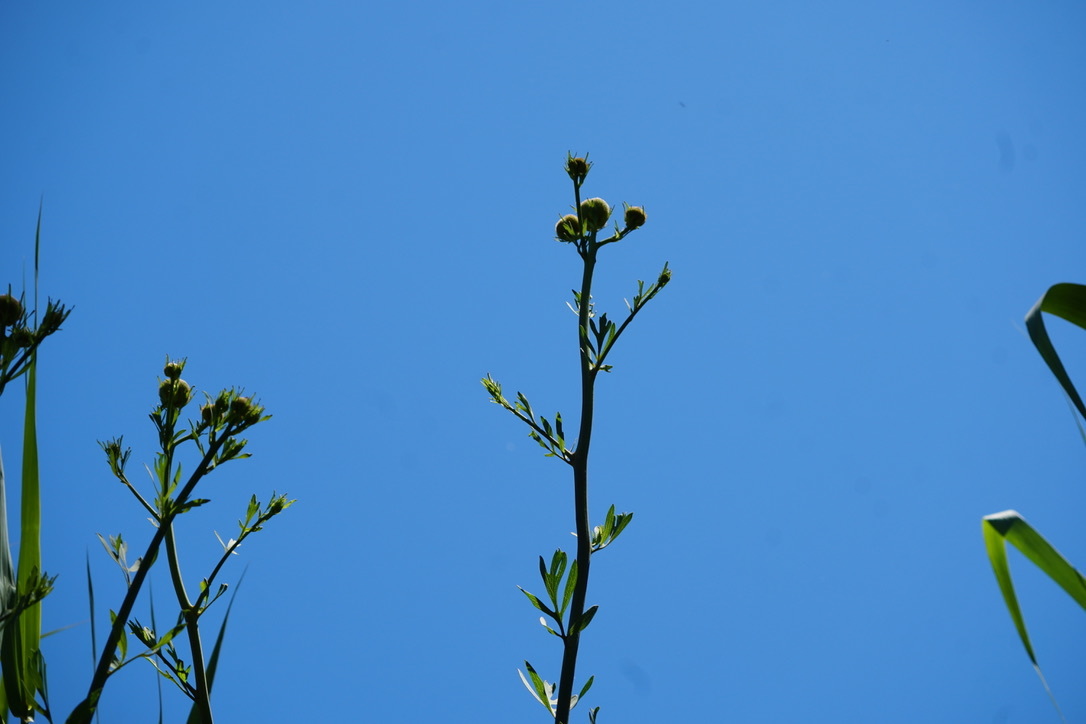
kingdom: Plantae
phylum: Tracheophyta
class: Magnoliopsida
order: Ranunculales
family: Papaveraceae
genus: Romneya
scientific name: Romneya trichocalyx
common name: Hairy matilija-poppy
